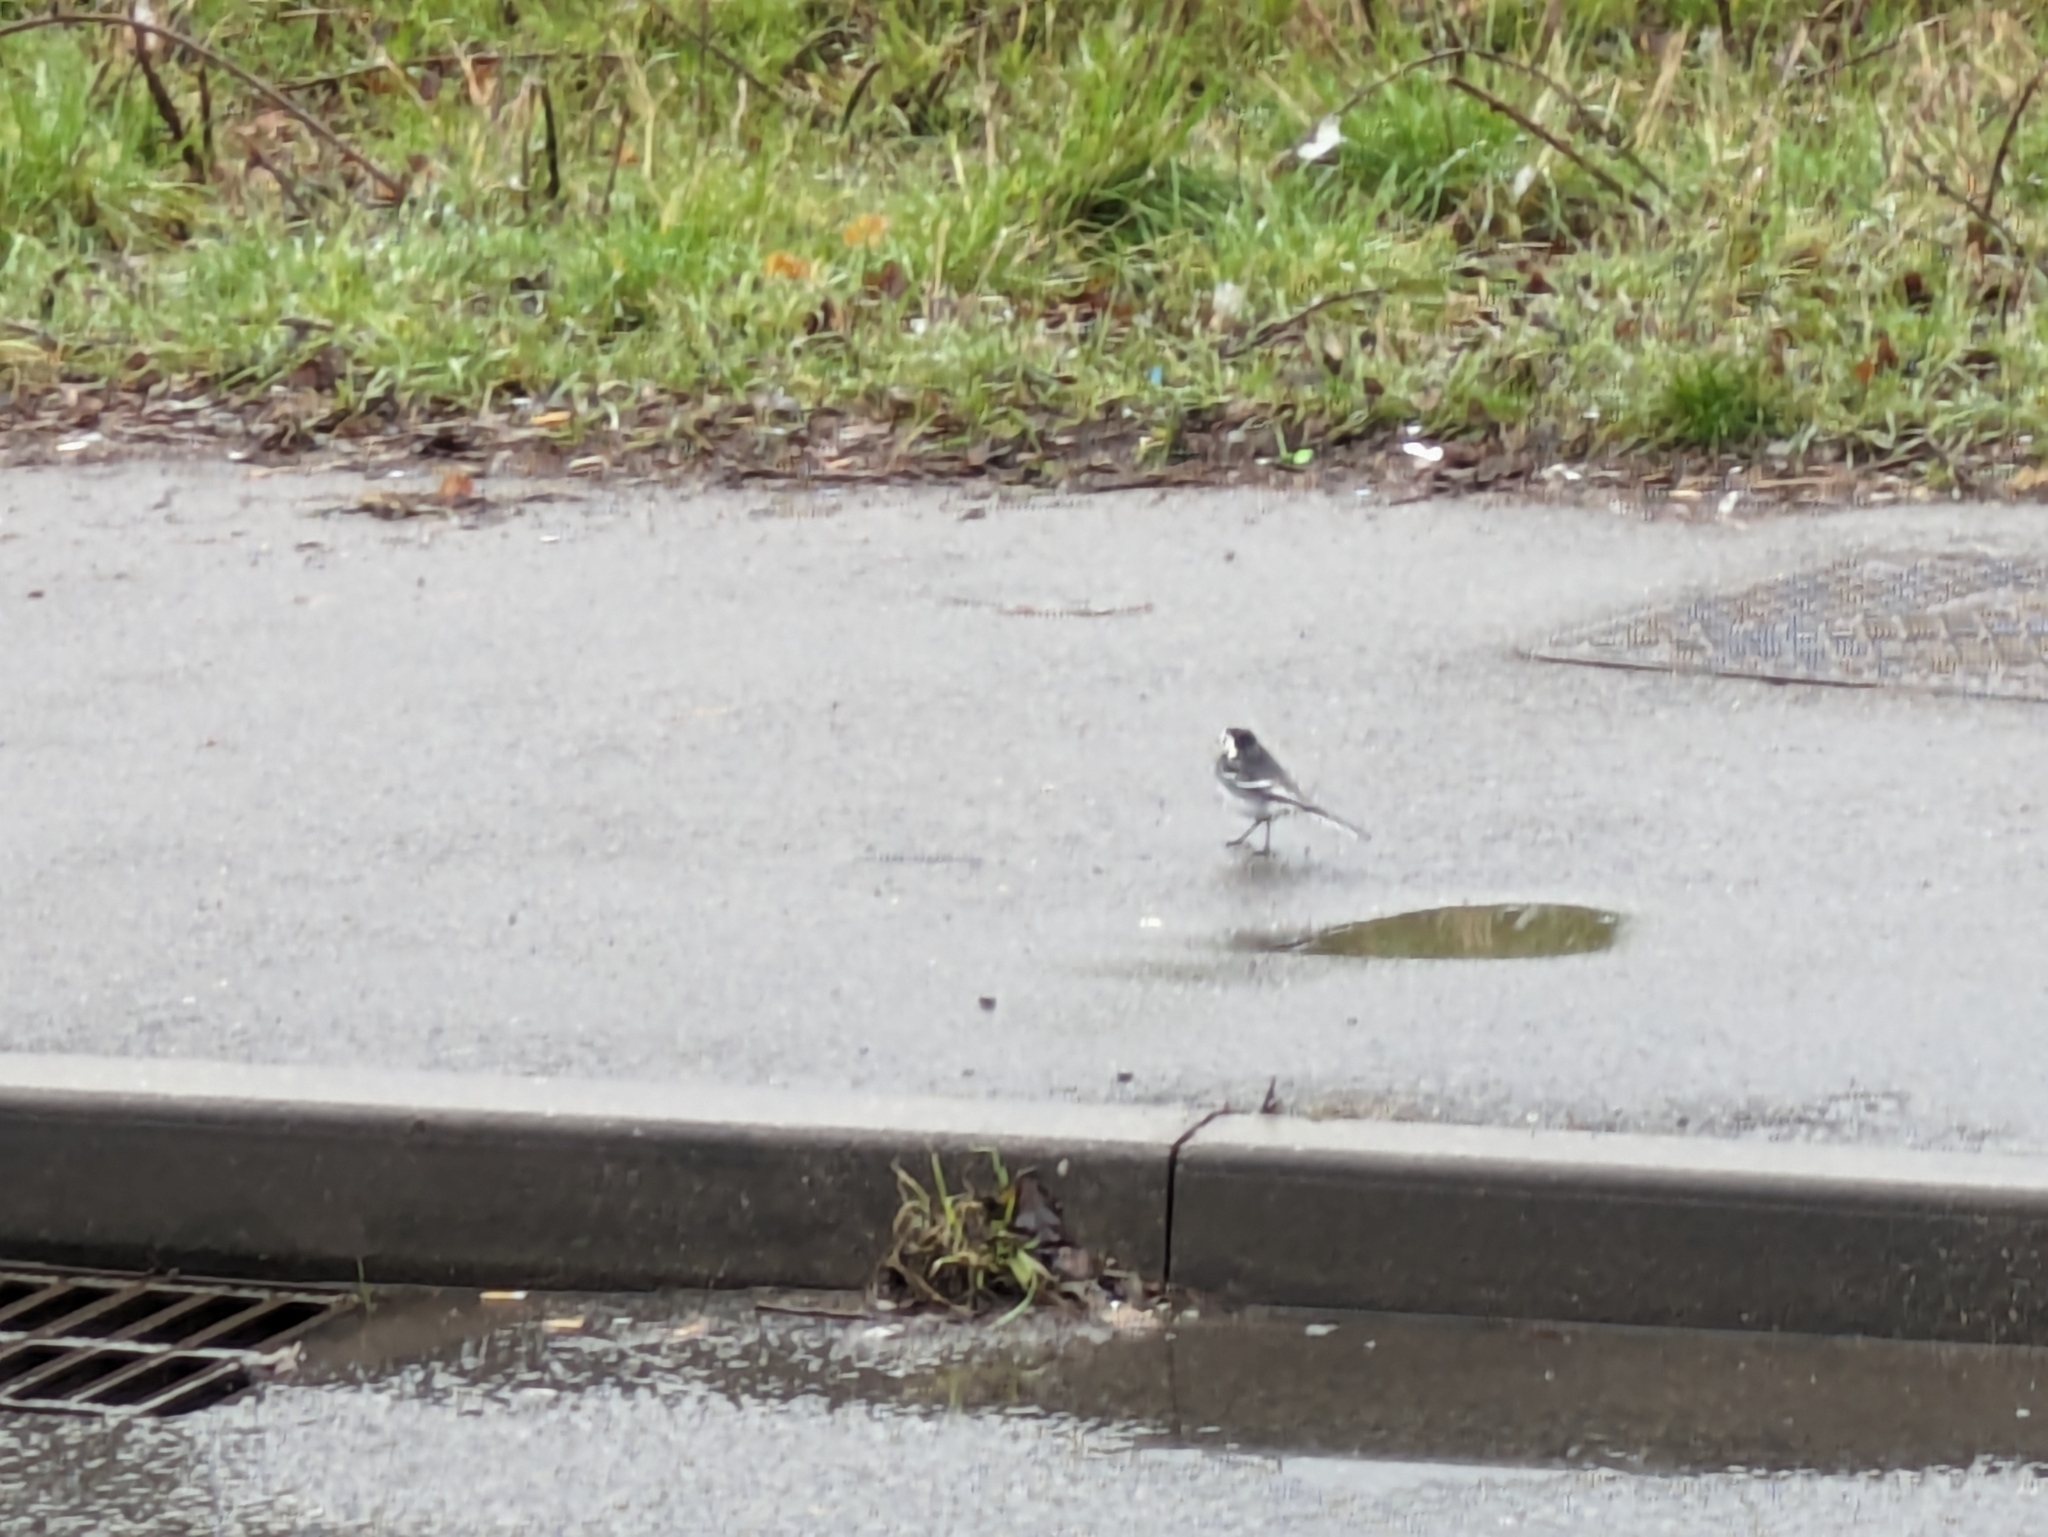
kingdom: Animalia
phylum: Chordata
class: Aves
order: Passeriformes
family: Motacillidae
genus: Motacilla
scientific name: Motacilla alba
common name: White wagtail
